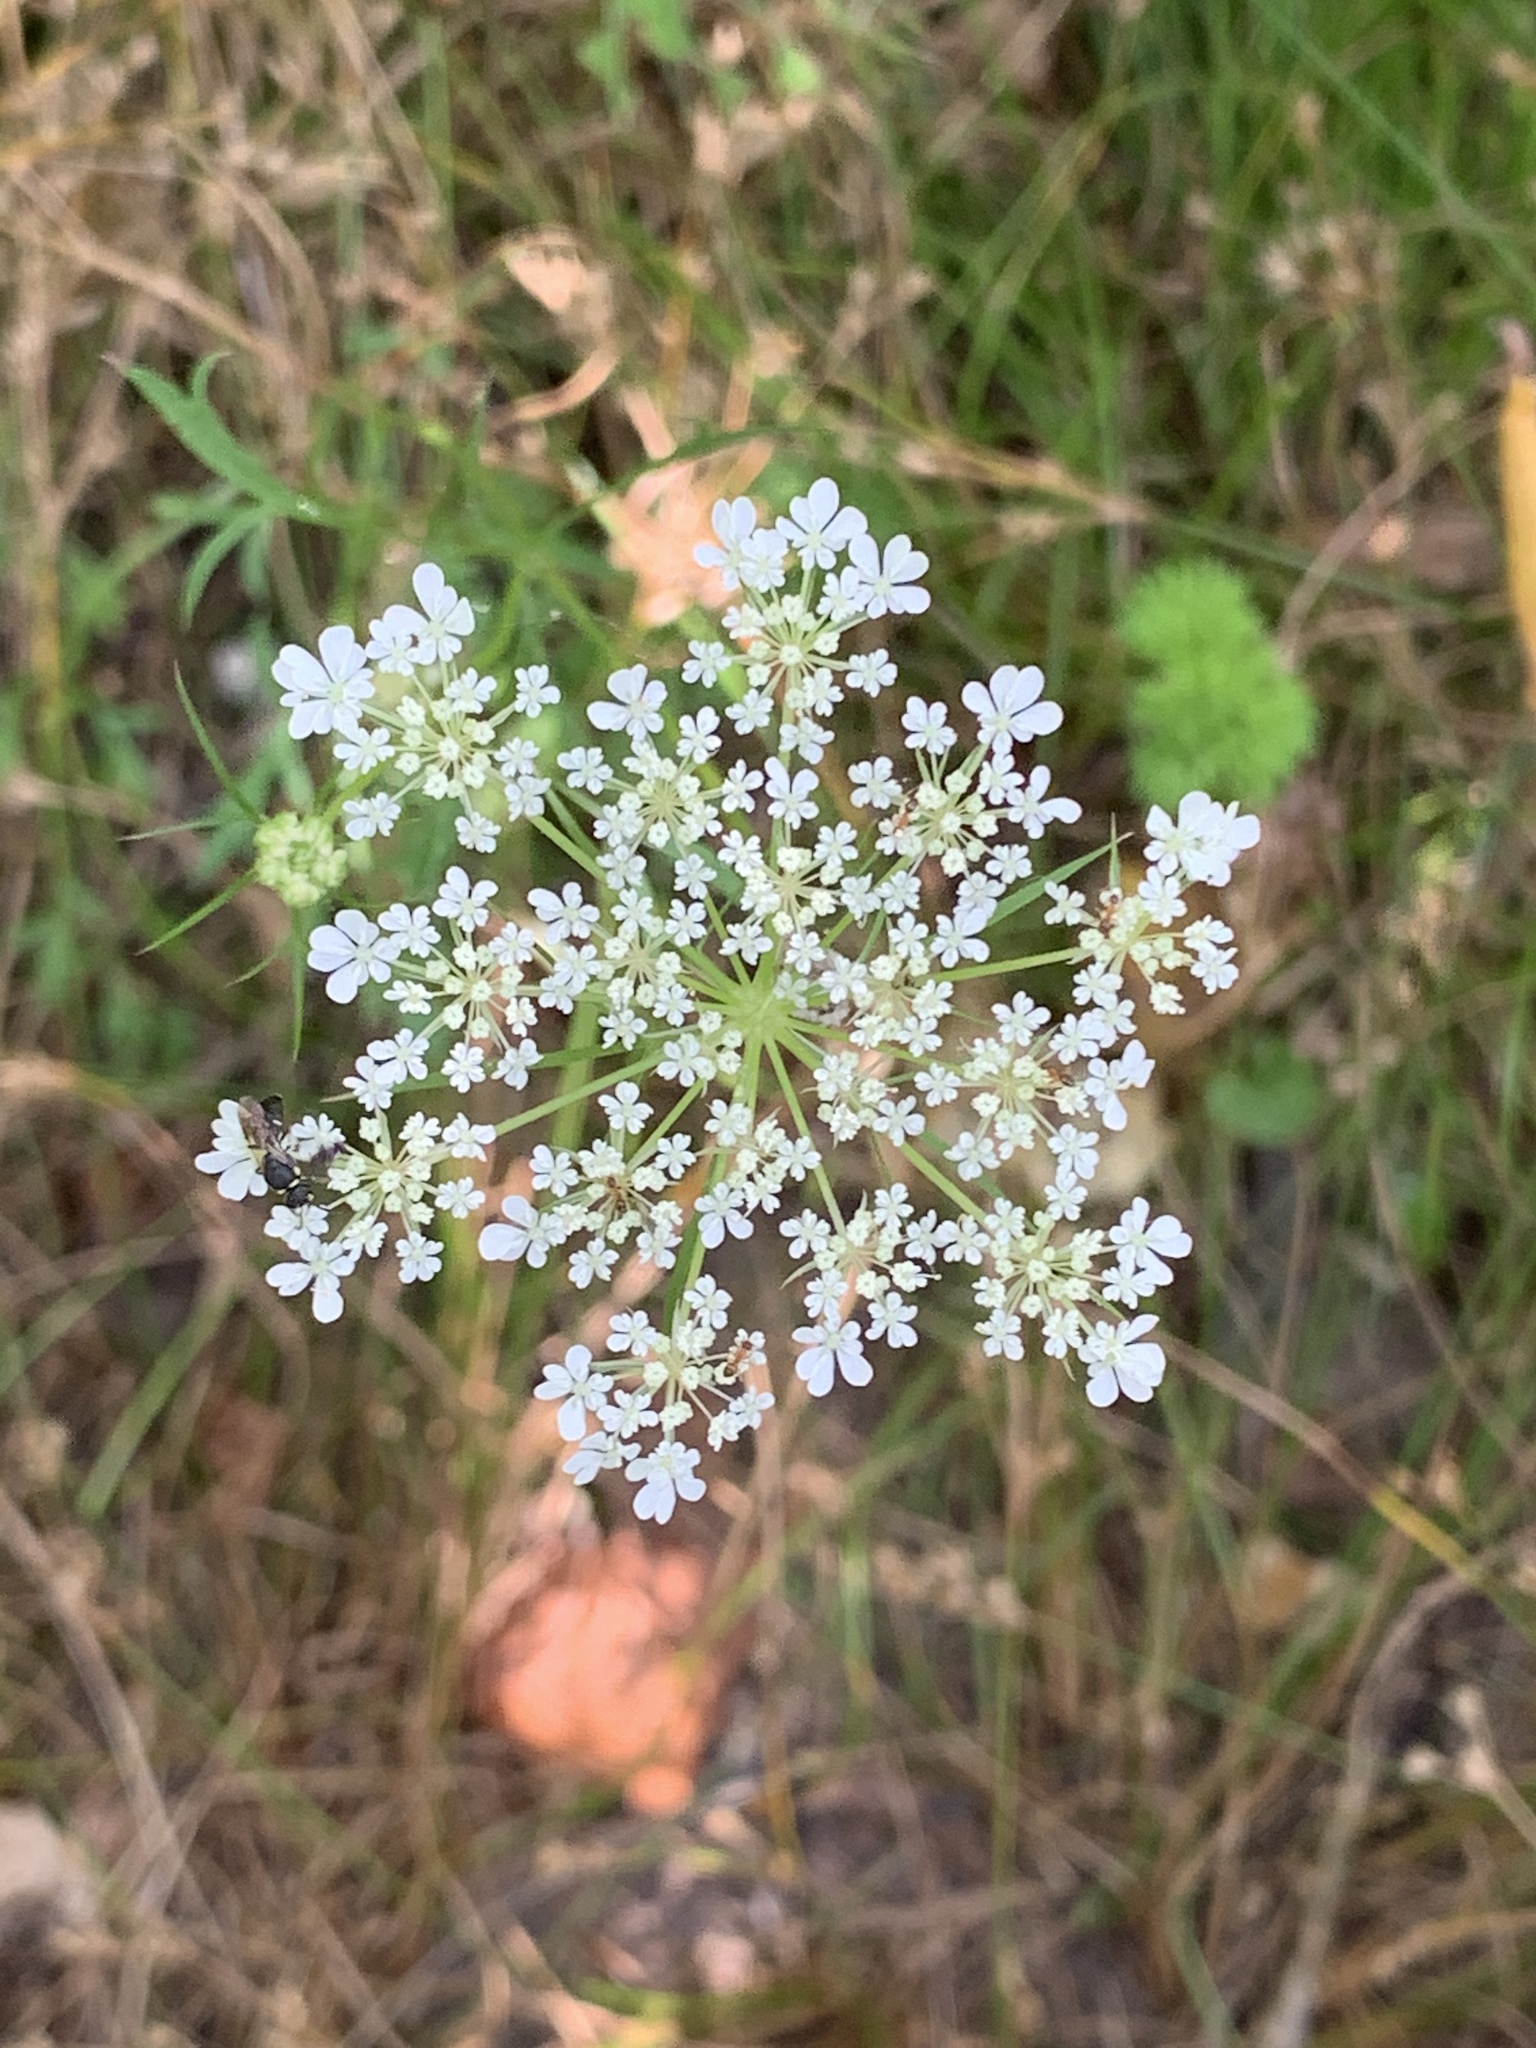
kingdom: Plantae
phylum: Tracheophyta
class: Magnoliopsida
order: Apiales
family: Apiaceae
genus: Daucus
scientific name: Daucus carota
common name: Wild carrot
